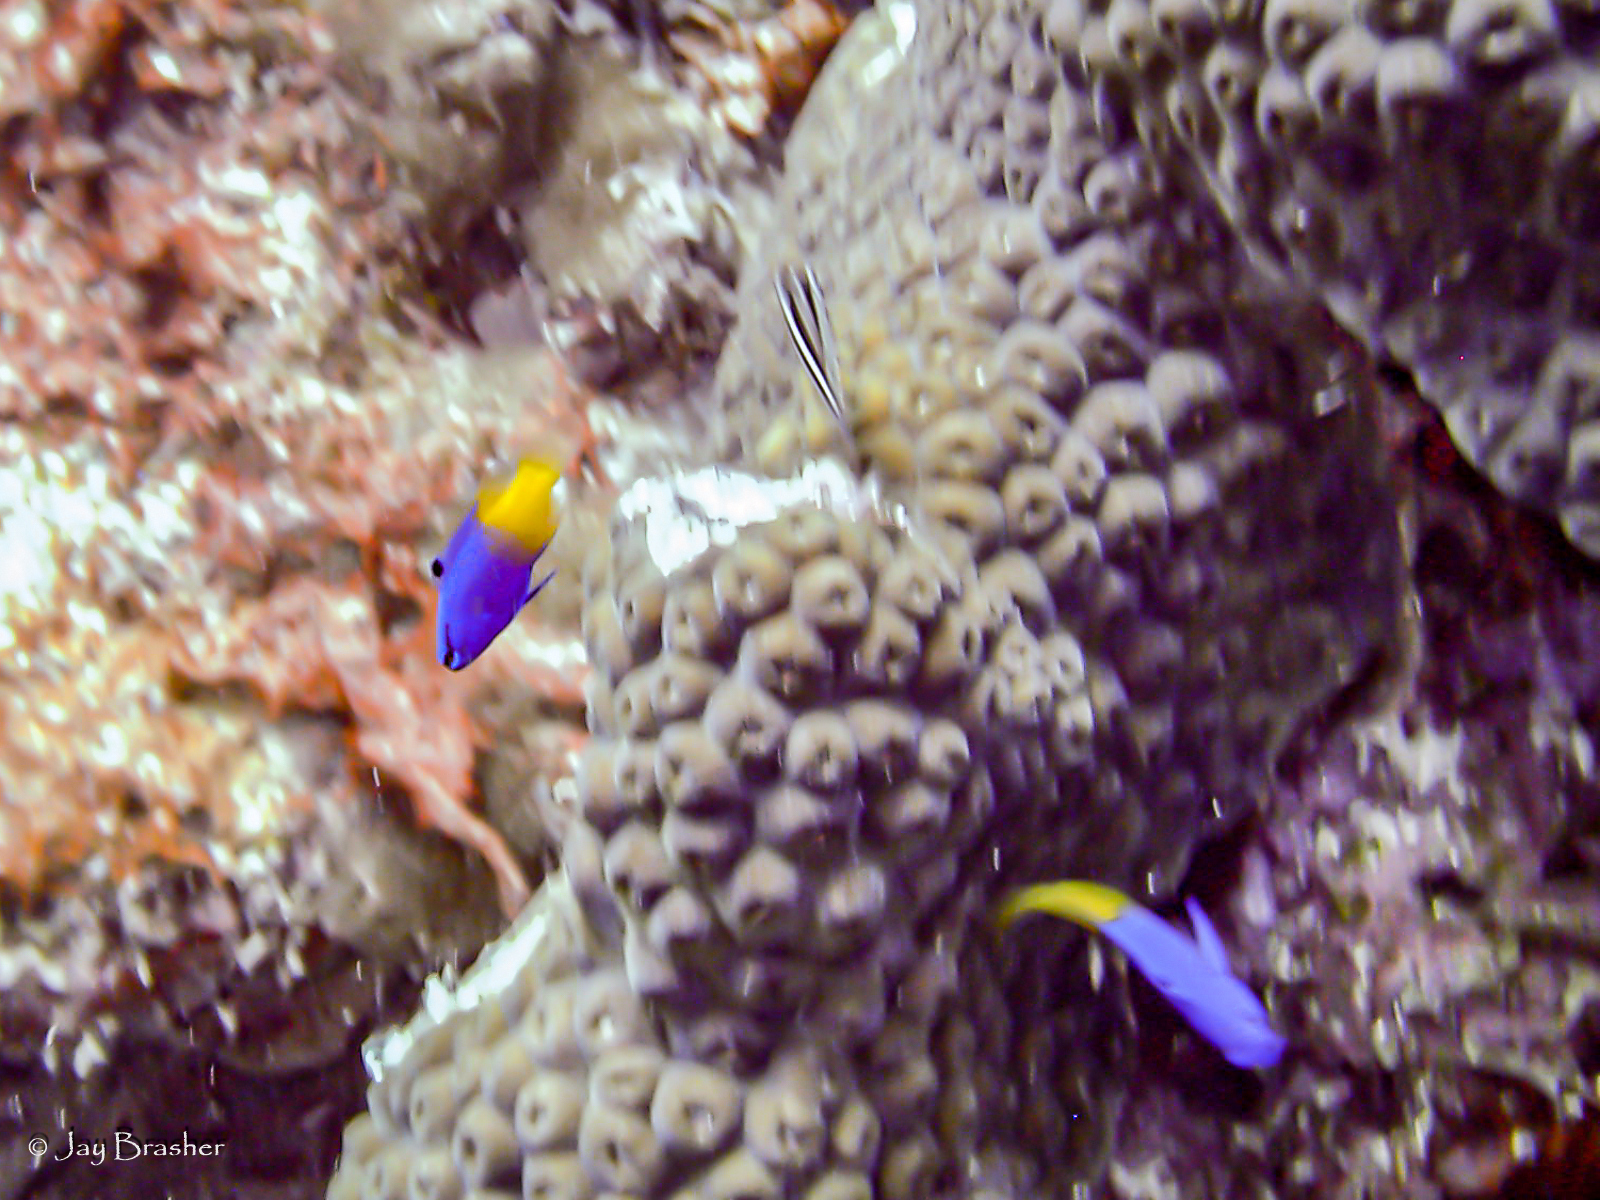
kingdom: Animalia
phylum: Cnidaria
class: Anthozoa
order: Scleractinia
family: Montastraeidae
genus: Montastraea
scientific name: Montastraea cavernosa
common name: Great star coral
